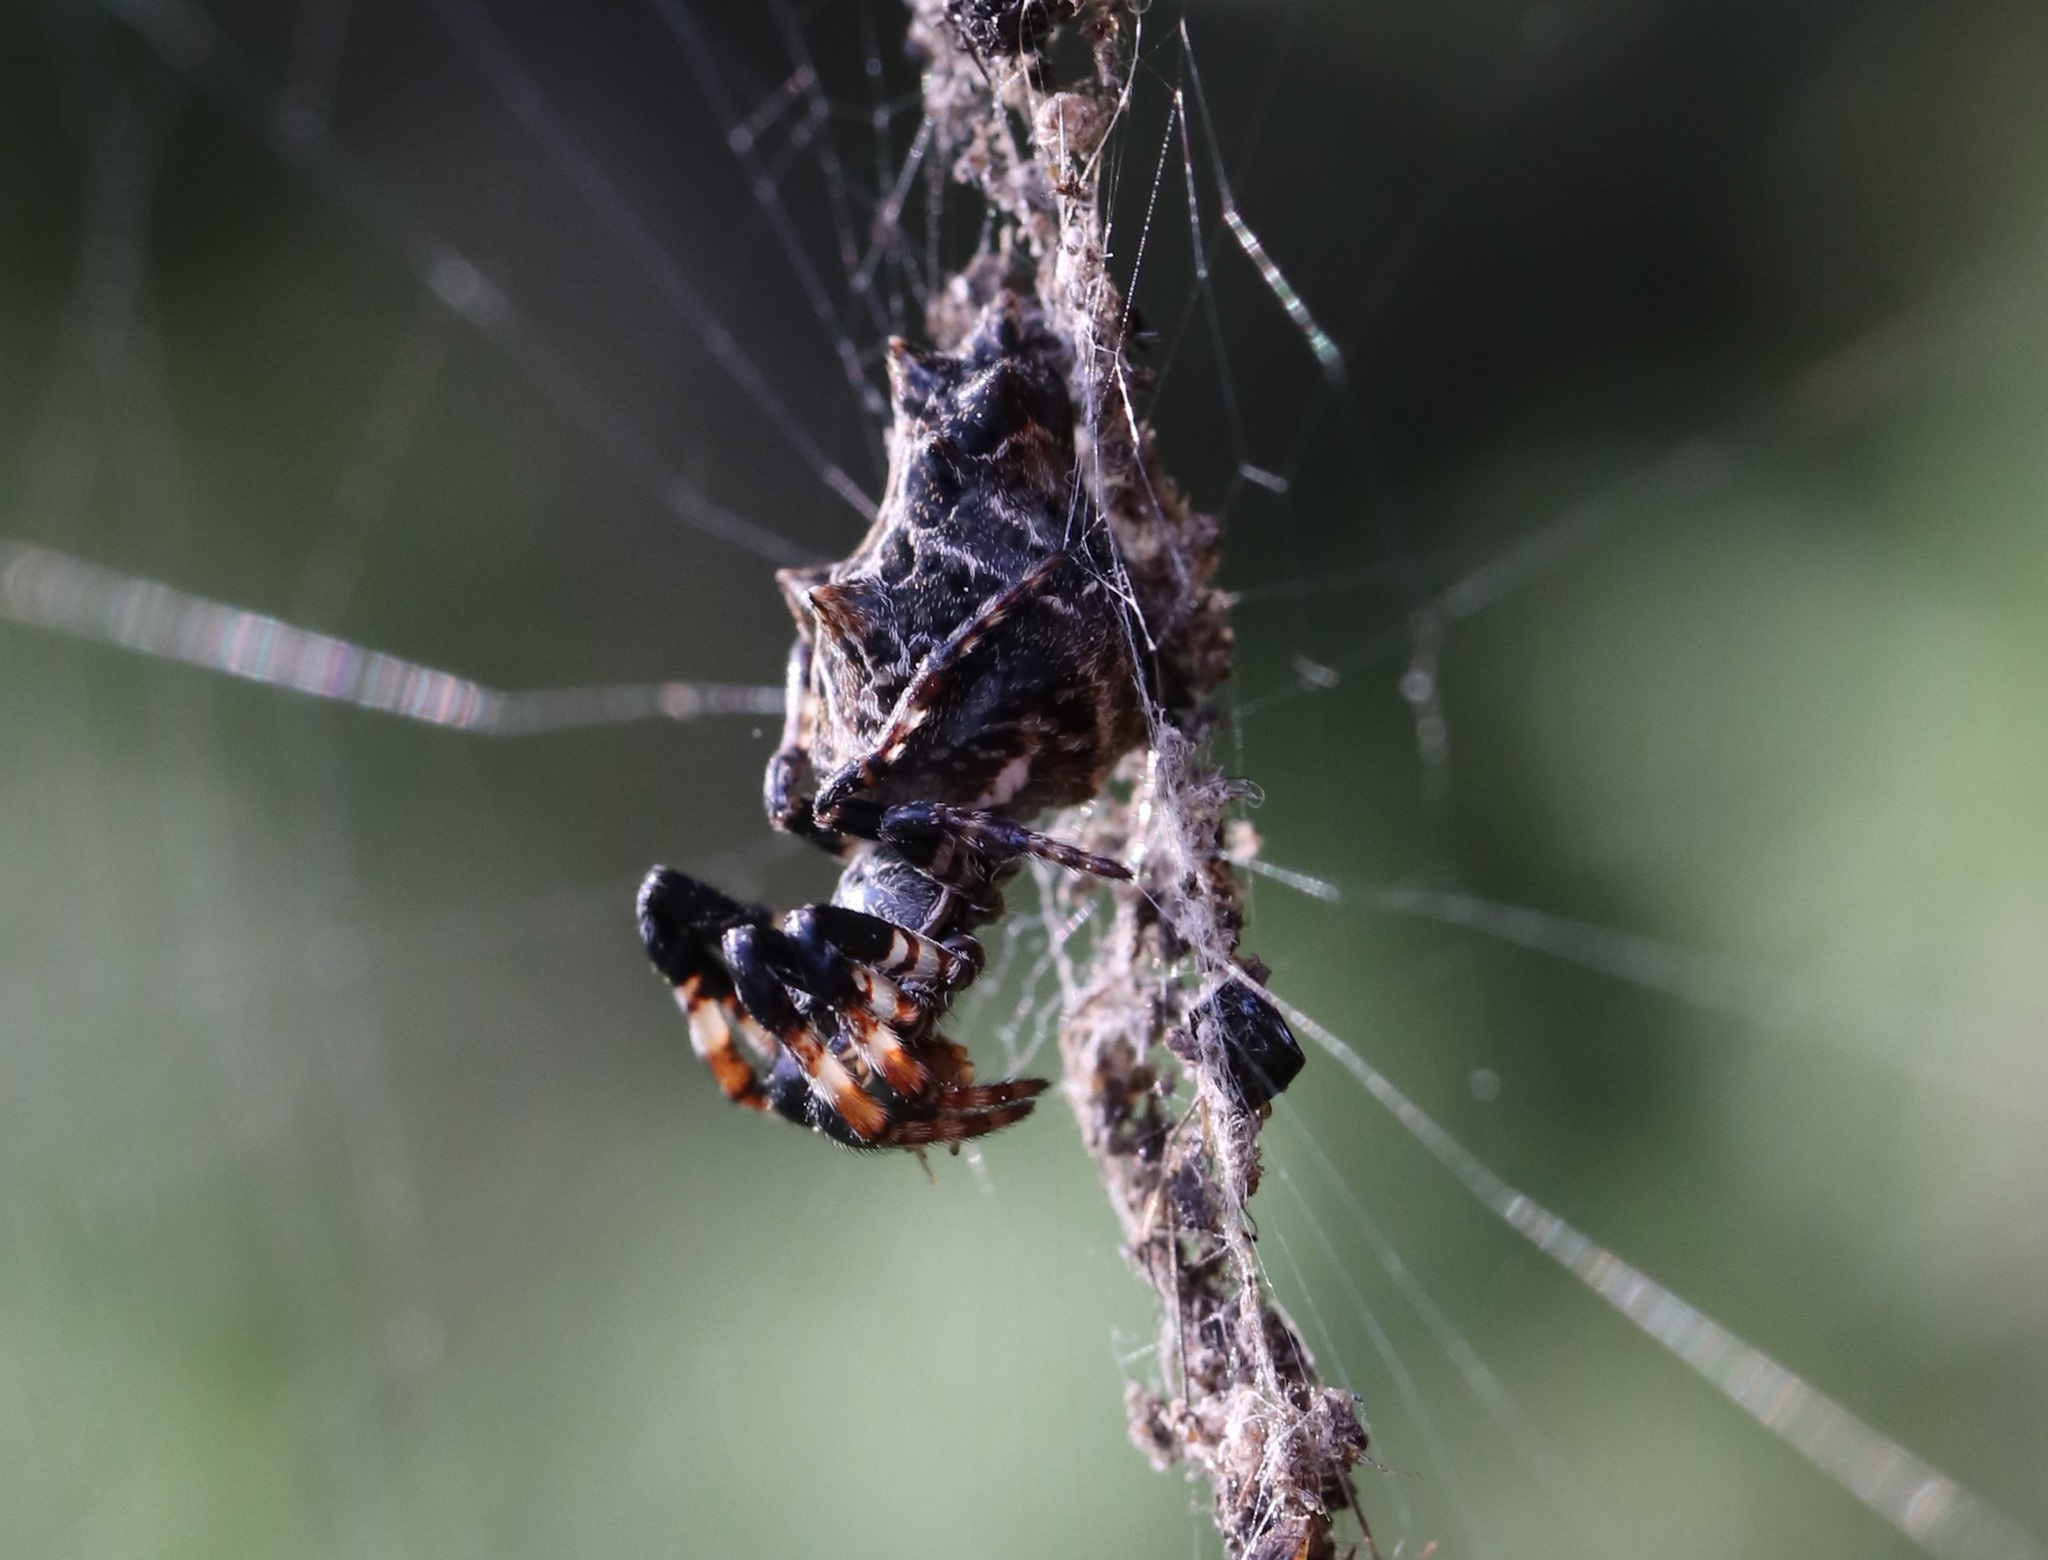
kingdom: Animalia
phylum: Arthropoda
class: Arachnida
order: Araneae
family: Araneidae
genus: Cyclosa
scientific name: Cyclosa octotuberculata
